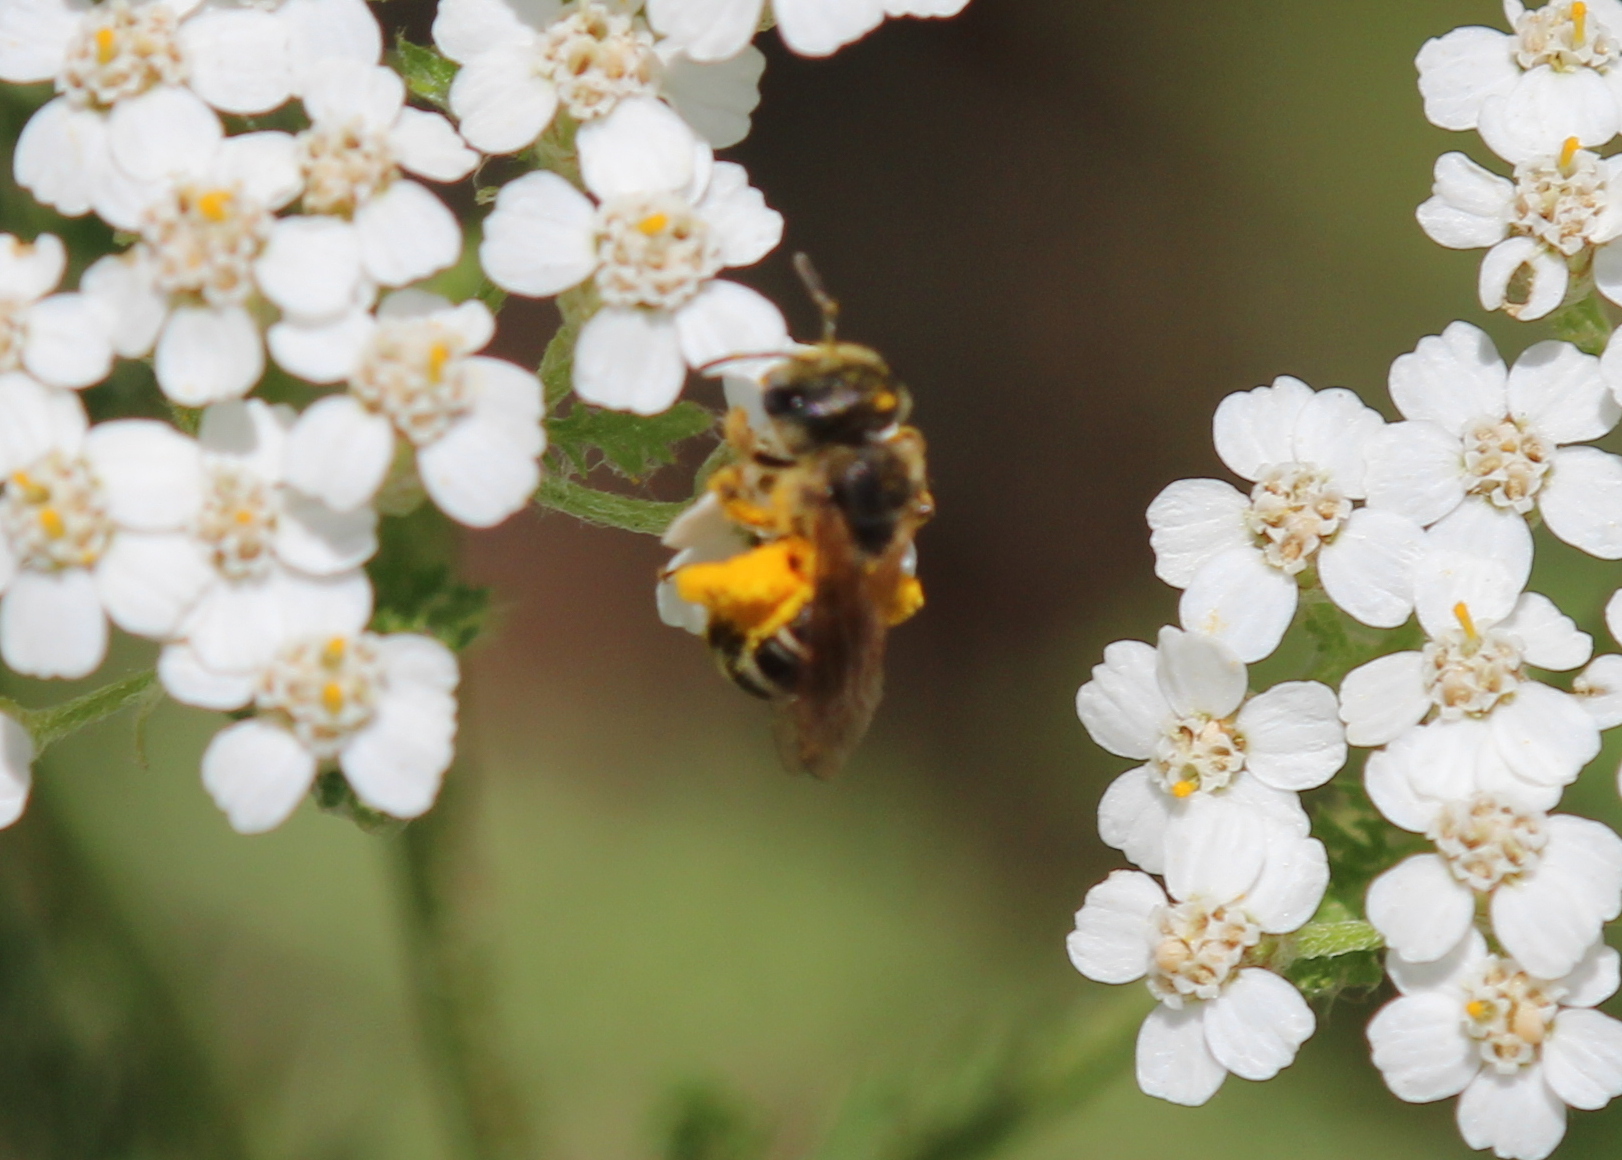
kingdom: Animalia
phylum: Arthropoda
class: Insecta
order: Hymenoptera
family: Halictidae
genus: Halictus
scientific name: Halictus ligatus
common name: Ligated furrow bee
